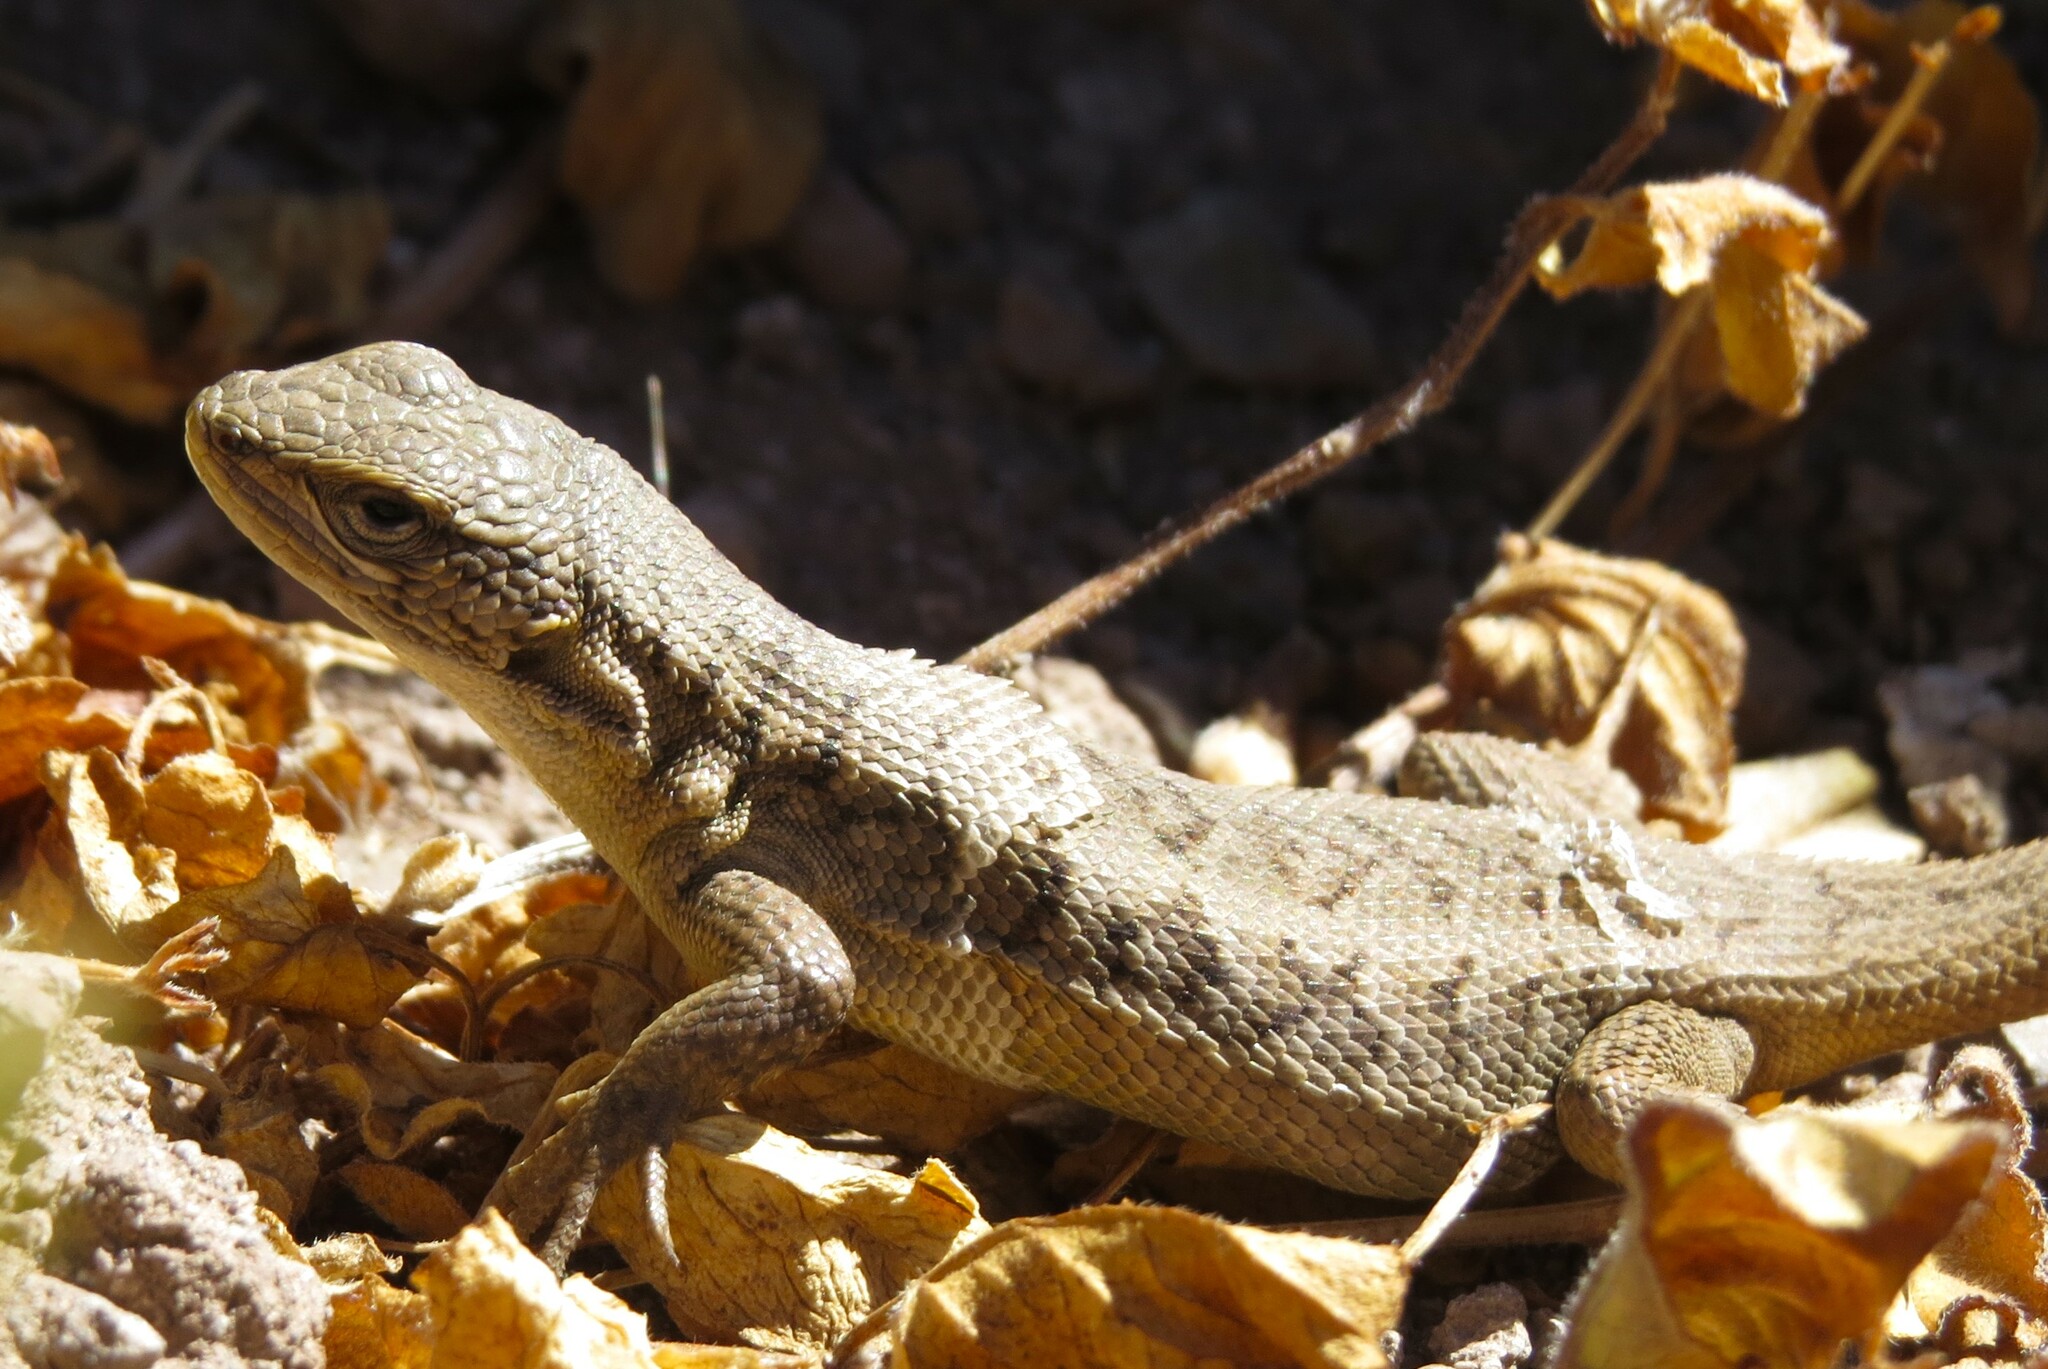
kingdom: Animalia
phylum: Chordata
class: Squamata
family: Liolaemidae
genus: Liolaemus
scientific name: Liolaemus fitzgeraldi
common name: Fitzgerald's tree iguana
